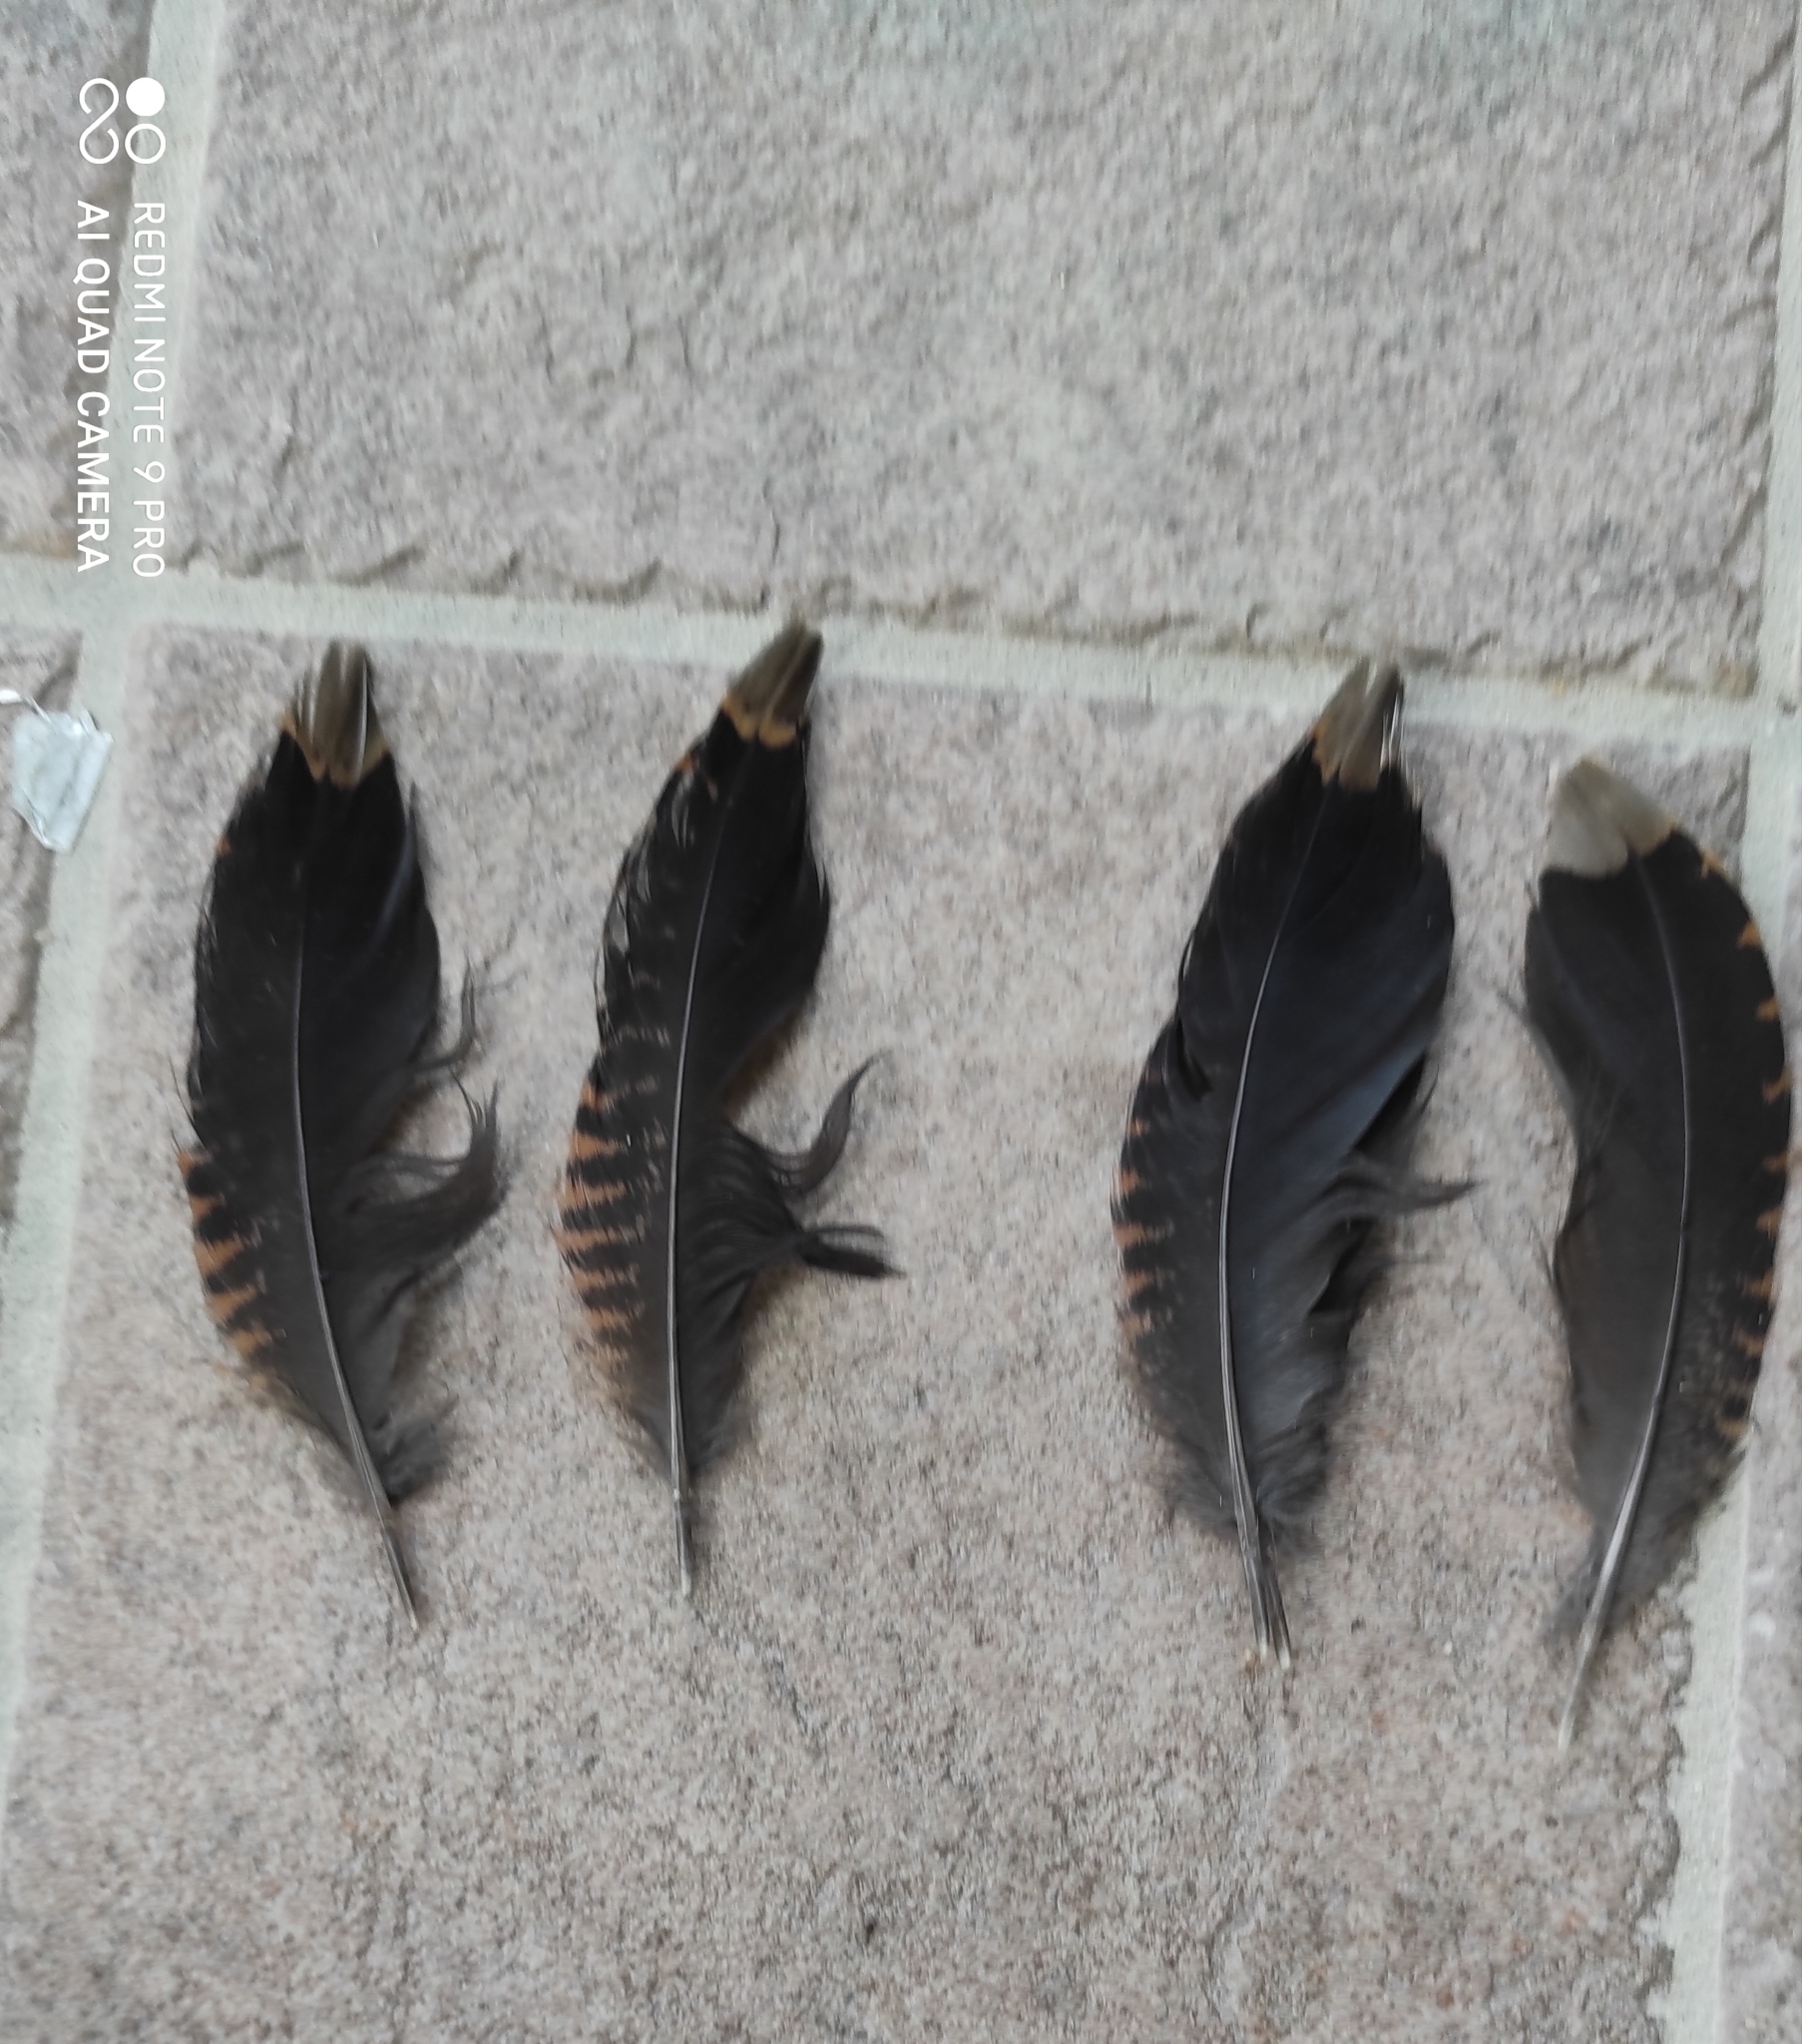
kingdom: Animalia
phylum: Chordata
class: Aves
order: Charadriiformes
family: Scolopacidae
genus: Scolopax
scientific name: Scolopax rusticola
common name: Eurasian woodcock
